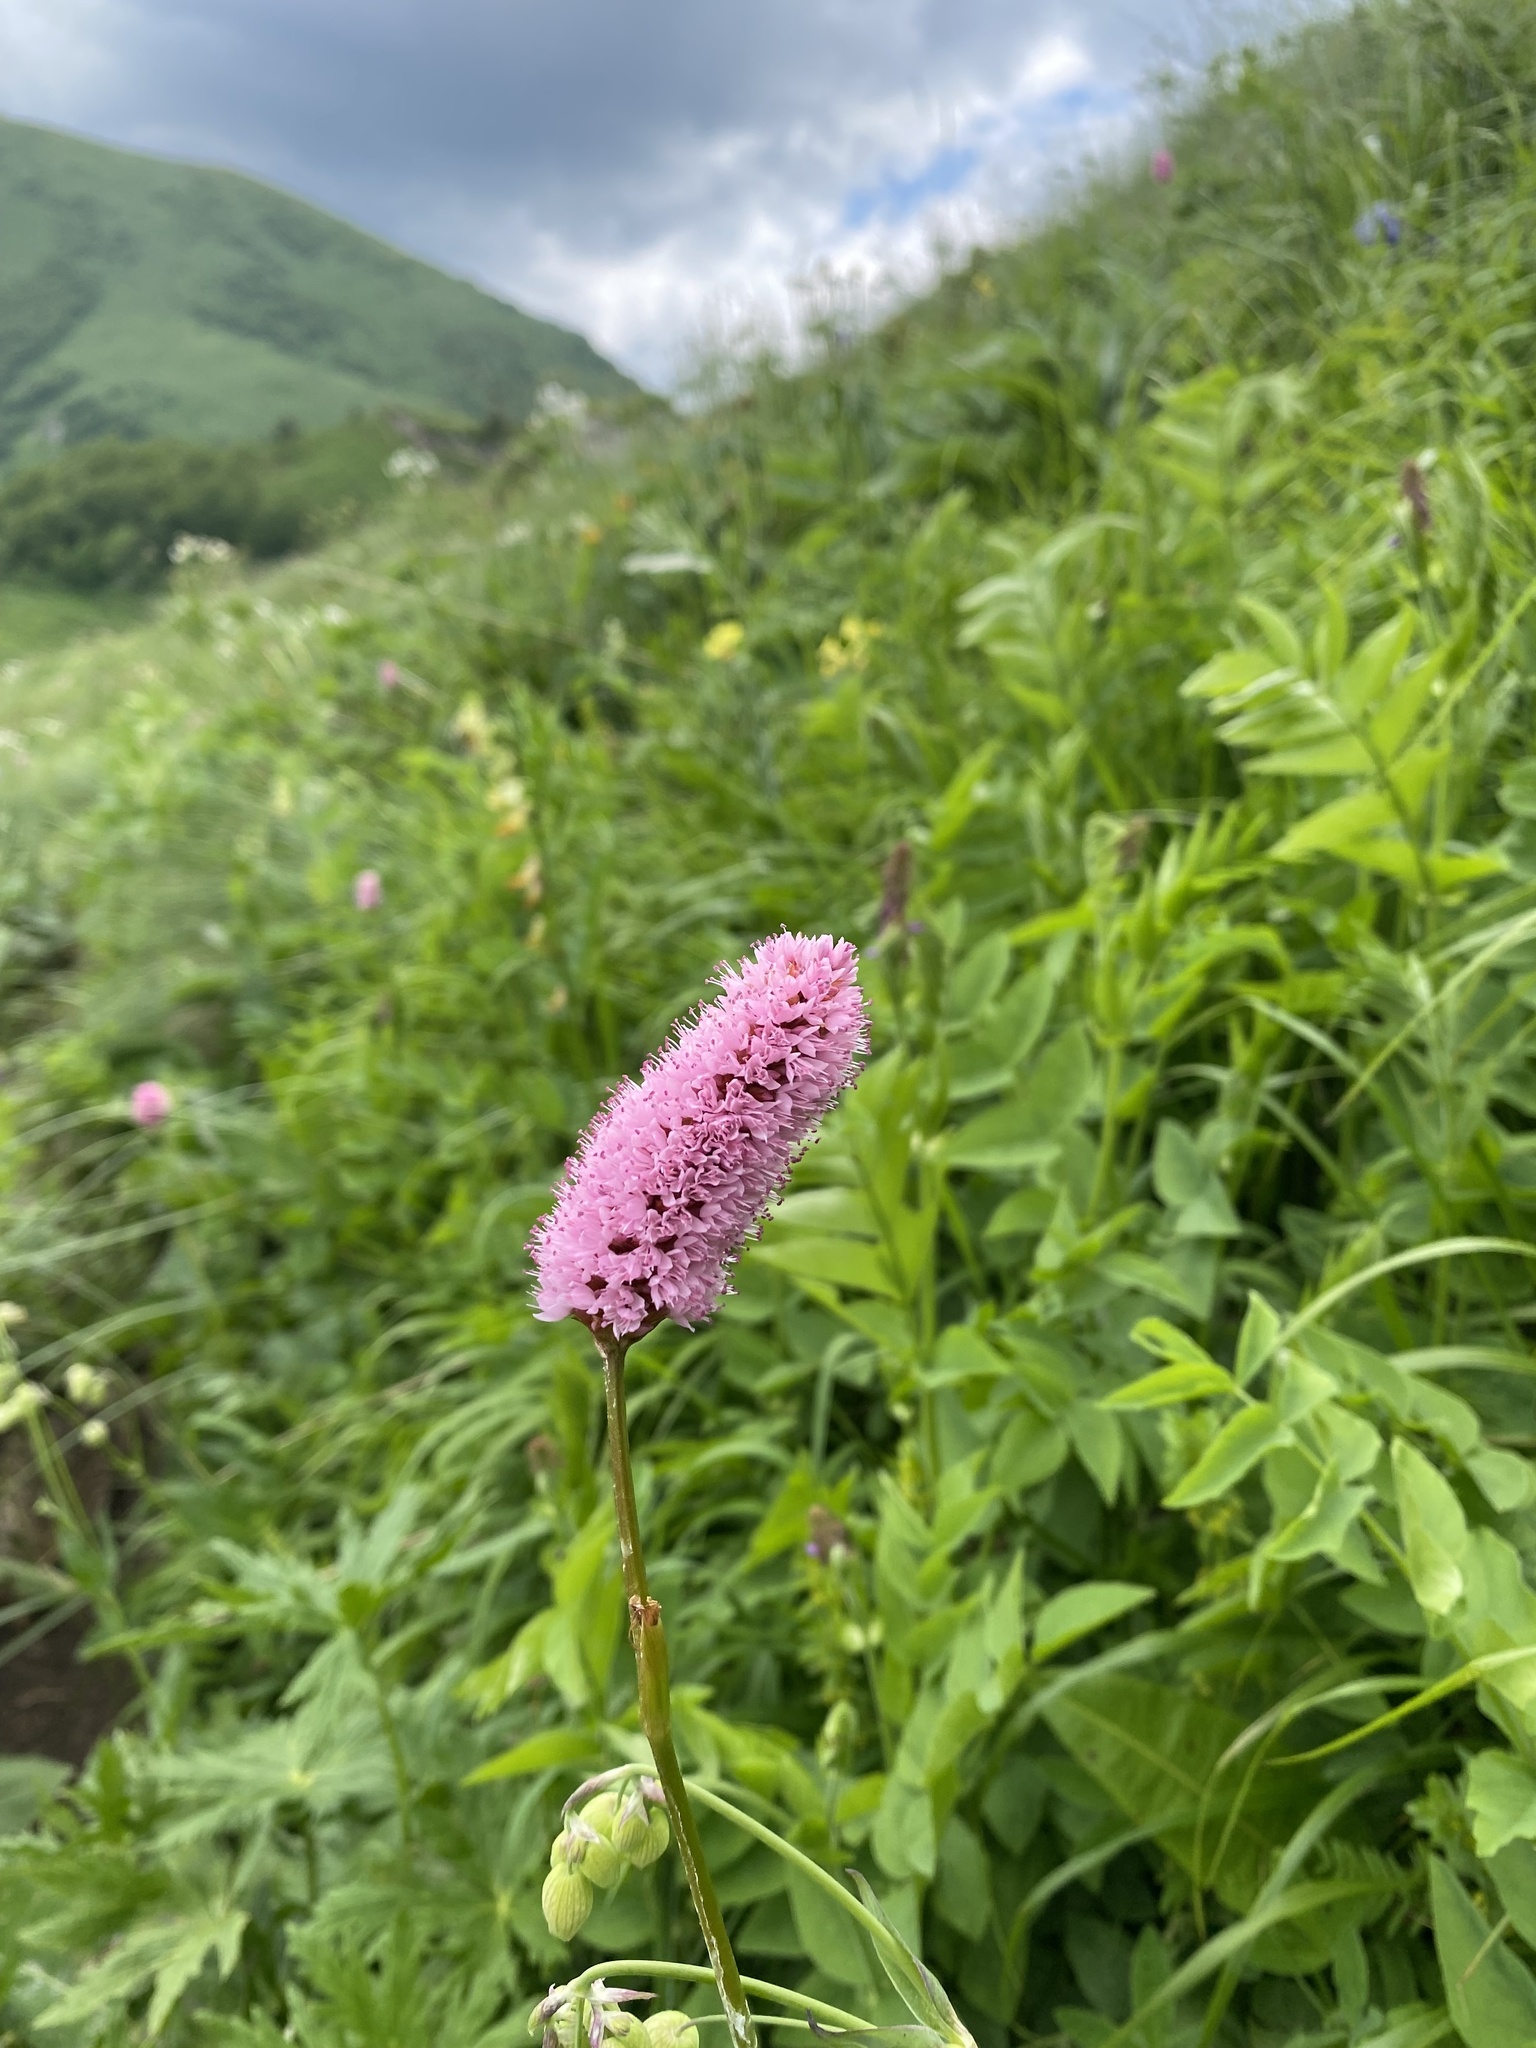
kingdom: Plantae
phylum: Tracheophyta
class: Magnoliopsida
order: Caryophyllales
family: Polygonaceae
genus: Bistorta
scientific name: Bistorta carnea
